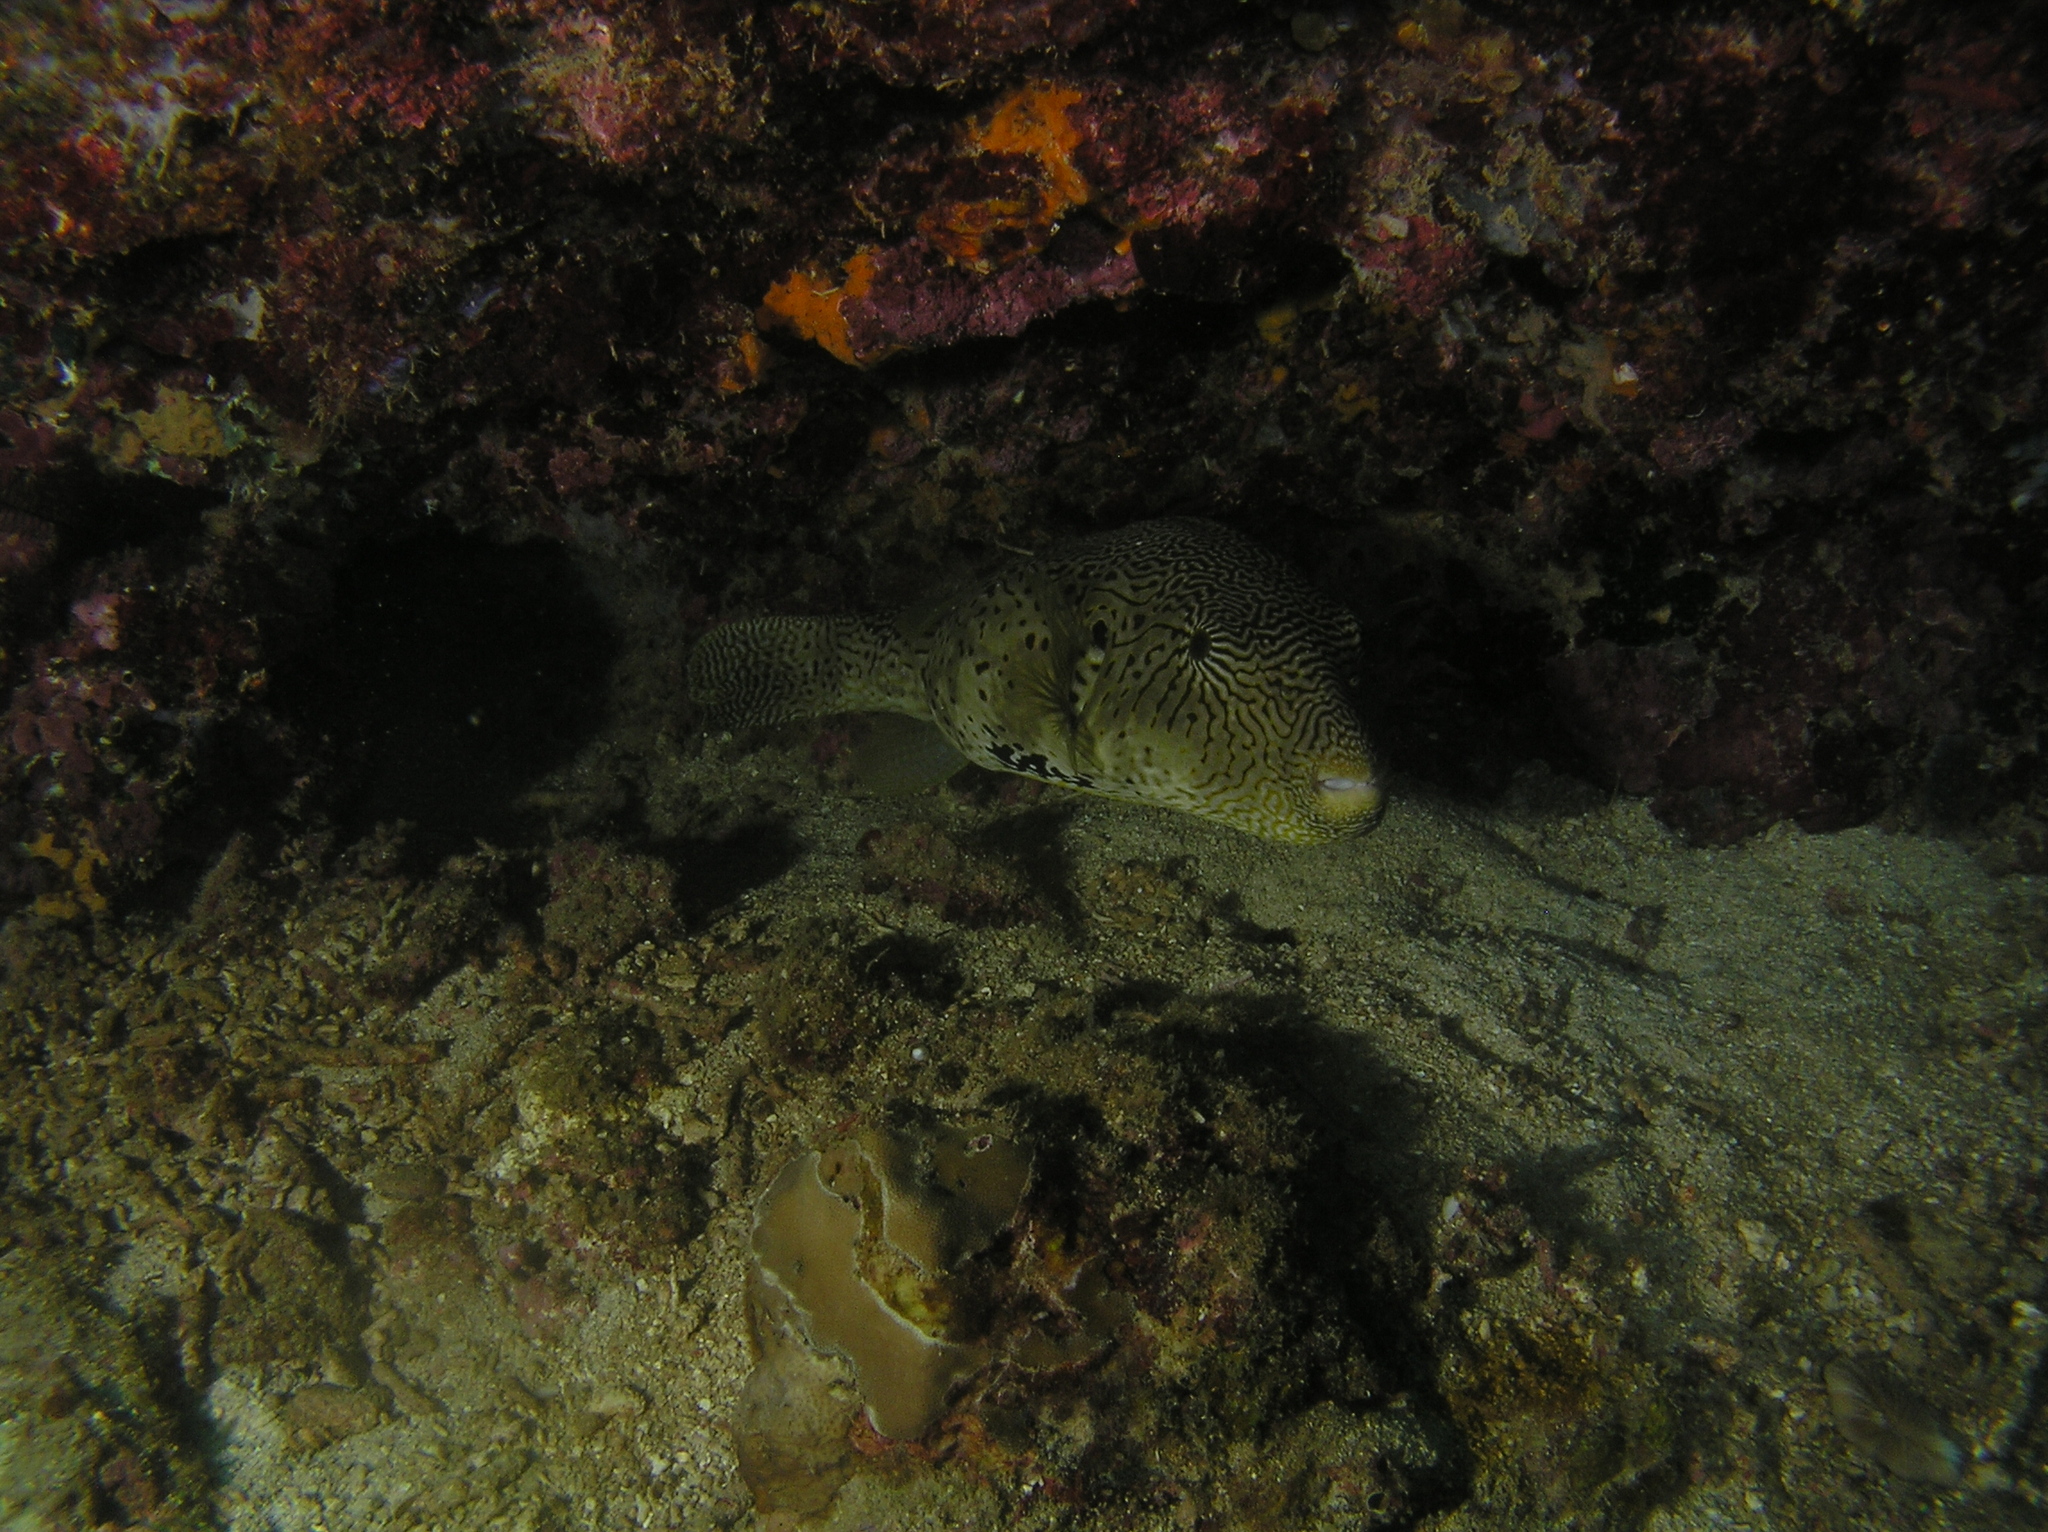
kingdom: Animalia
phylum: Chordata
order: Tetraodontiformes
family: Tetraodontidae
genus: Arothron
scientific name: Arothron mappa
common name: Map blaasop
